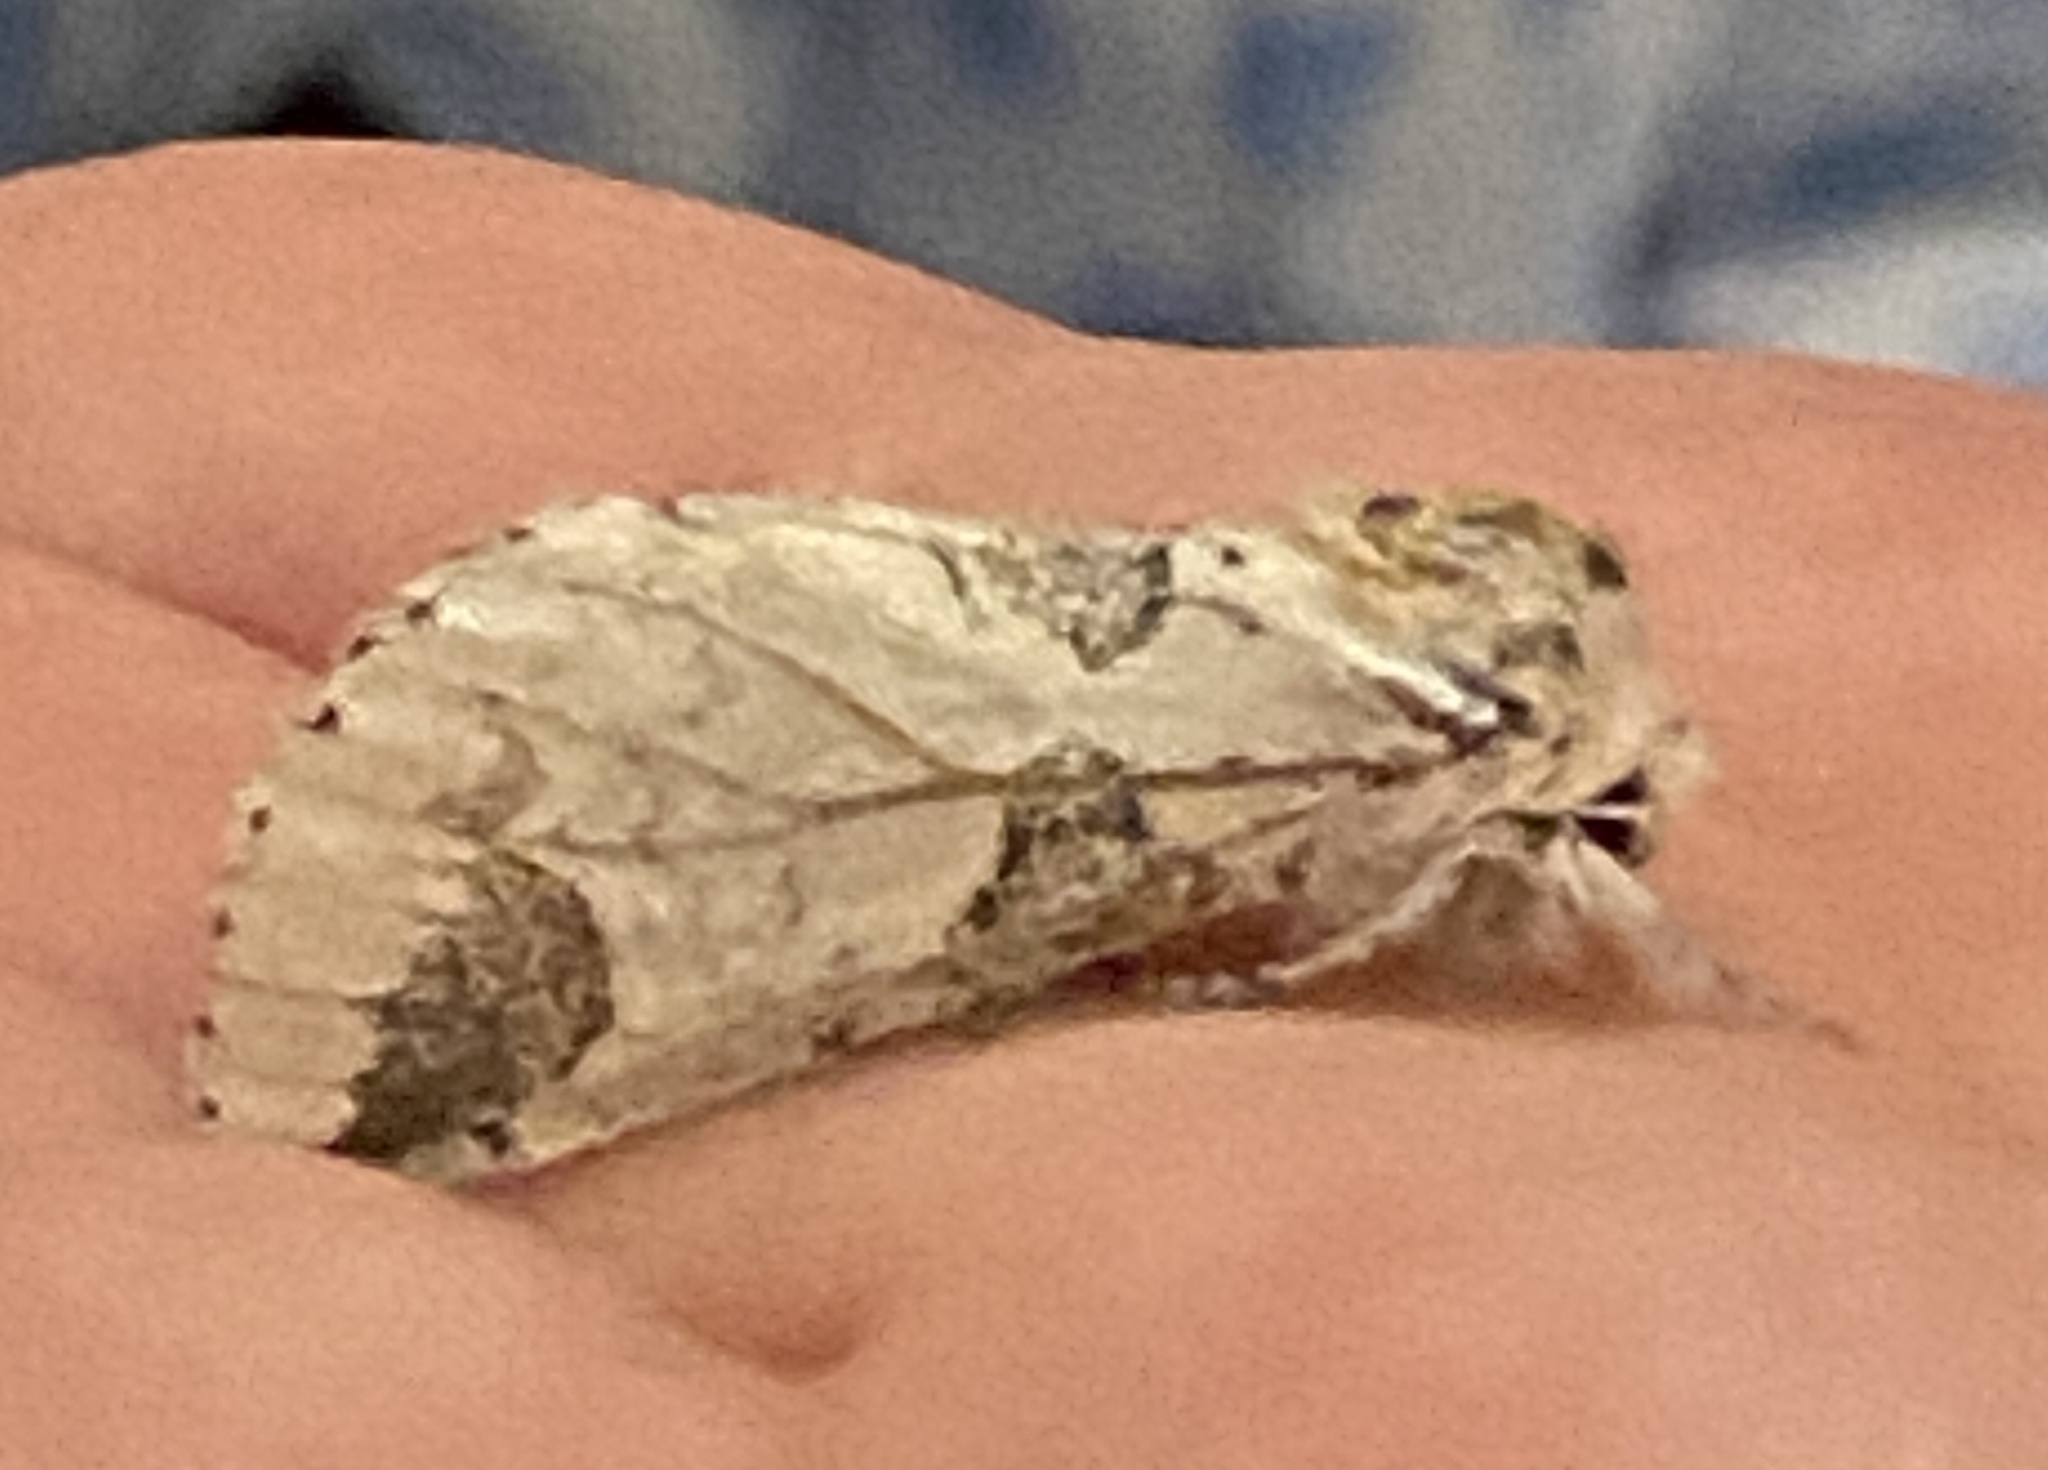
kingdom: Animalia
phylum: Arthropoda
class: Insecta
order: Lepidoptera
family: Notodontidae
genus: Furcula
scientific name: Furcula interrupta
